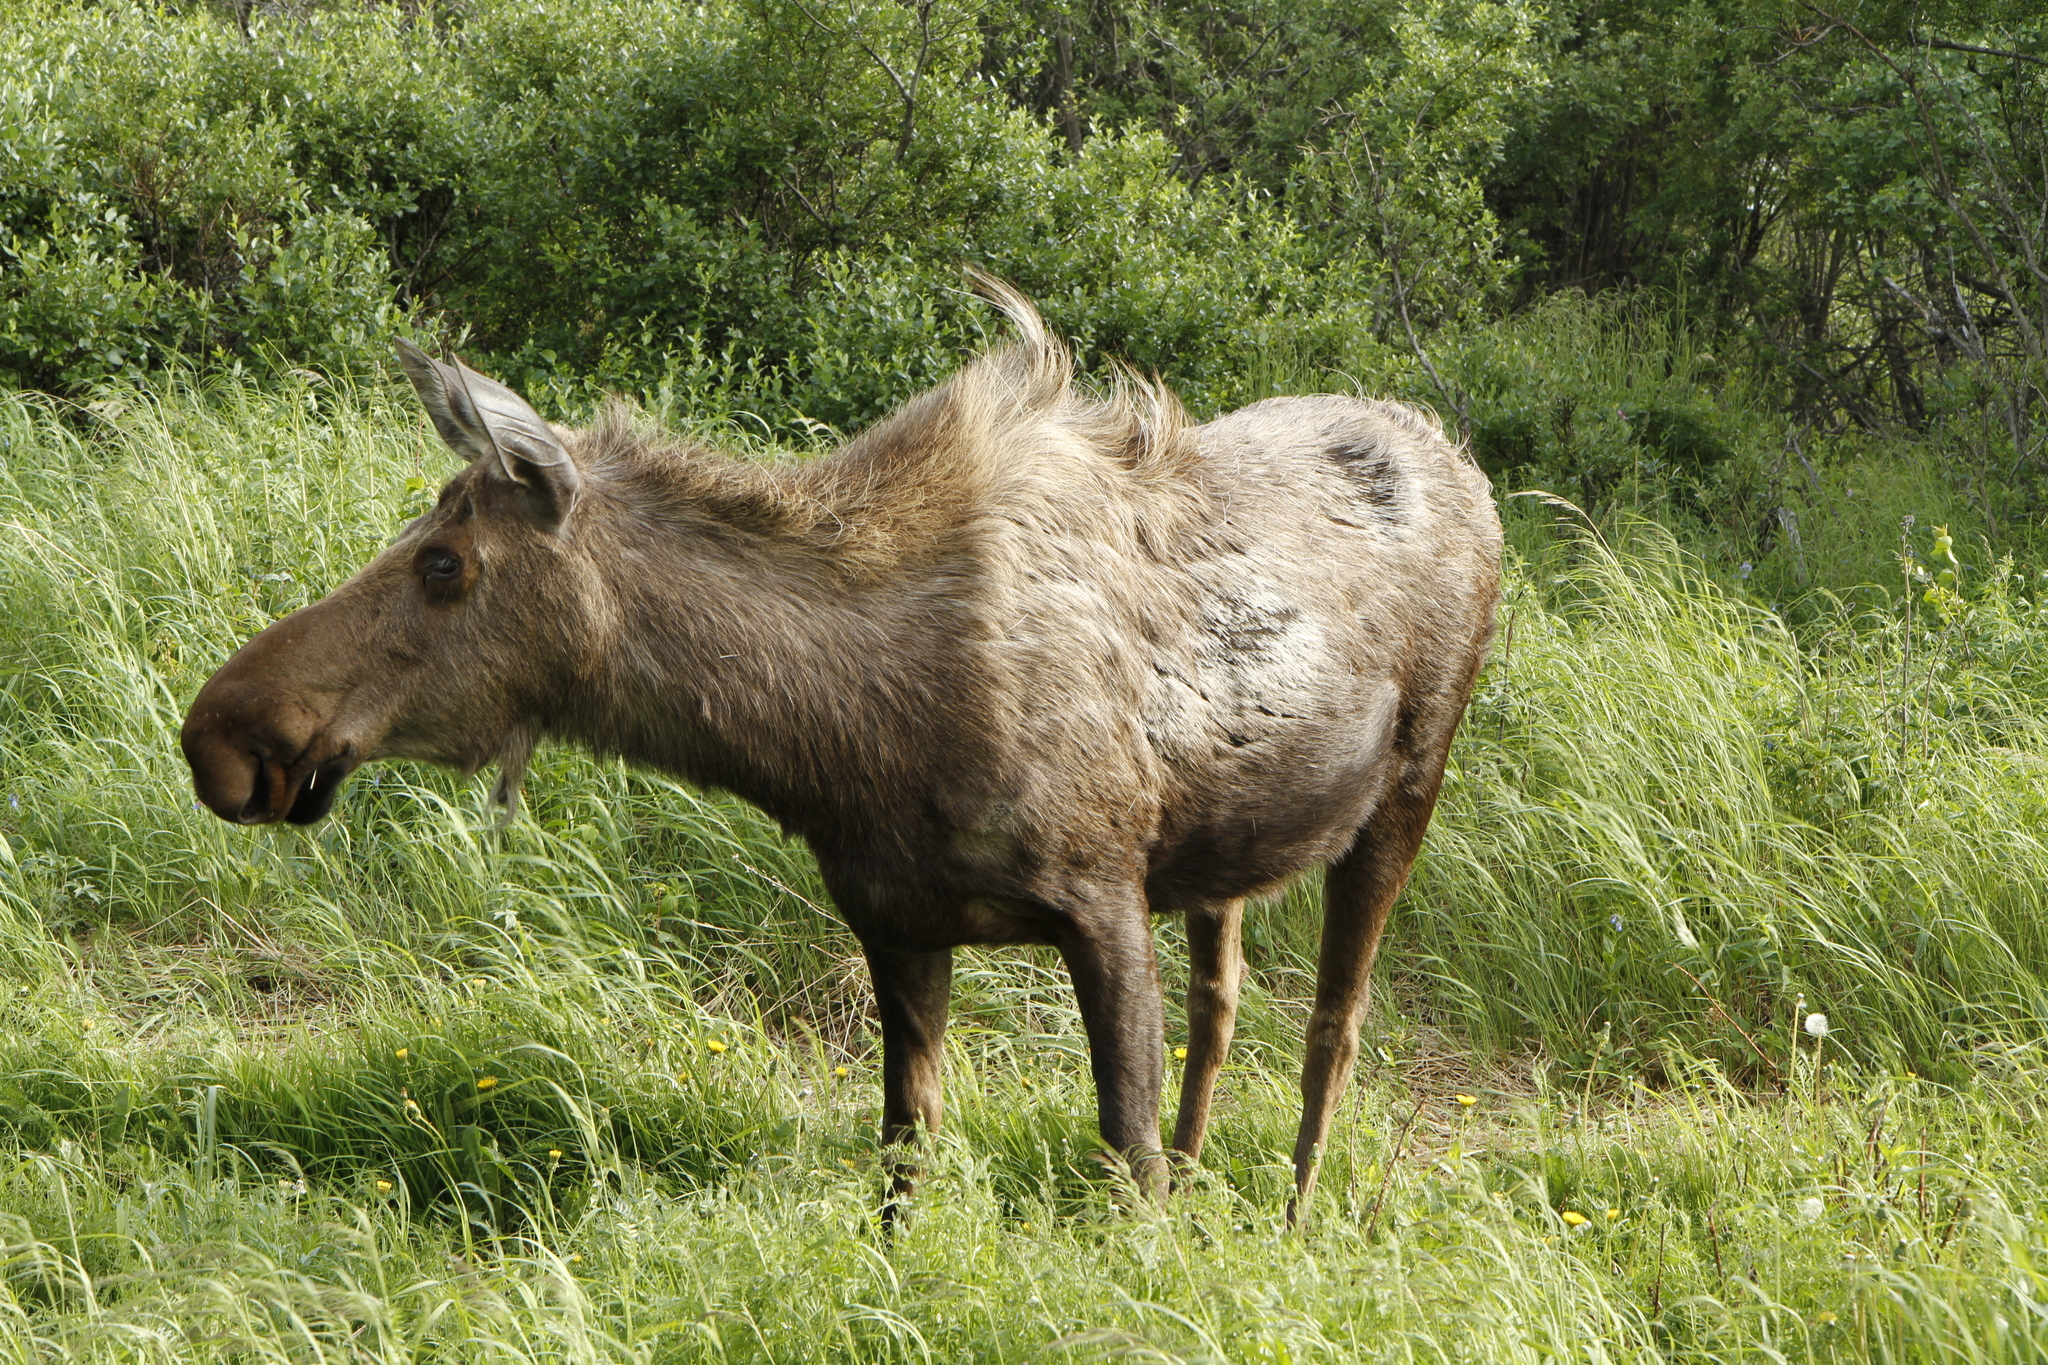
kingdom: Animalia
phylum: Chordata
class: Mammalia
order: Artiodactyla
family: Cervidae
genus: Alces
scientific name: Alces alces
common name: Moose
